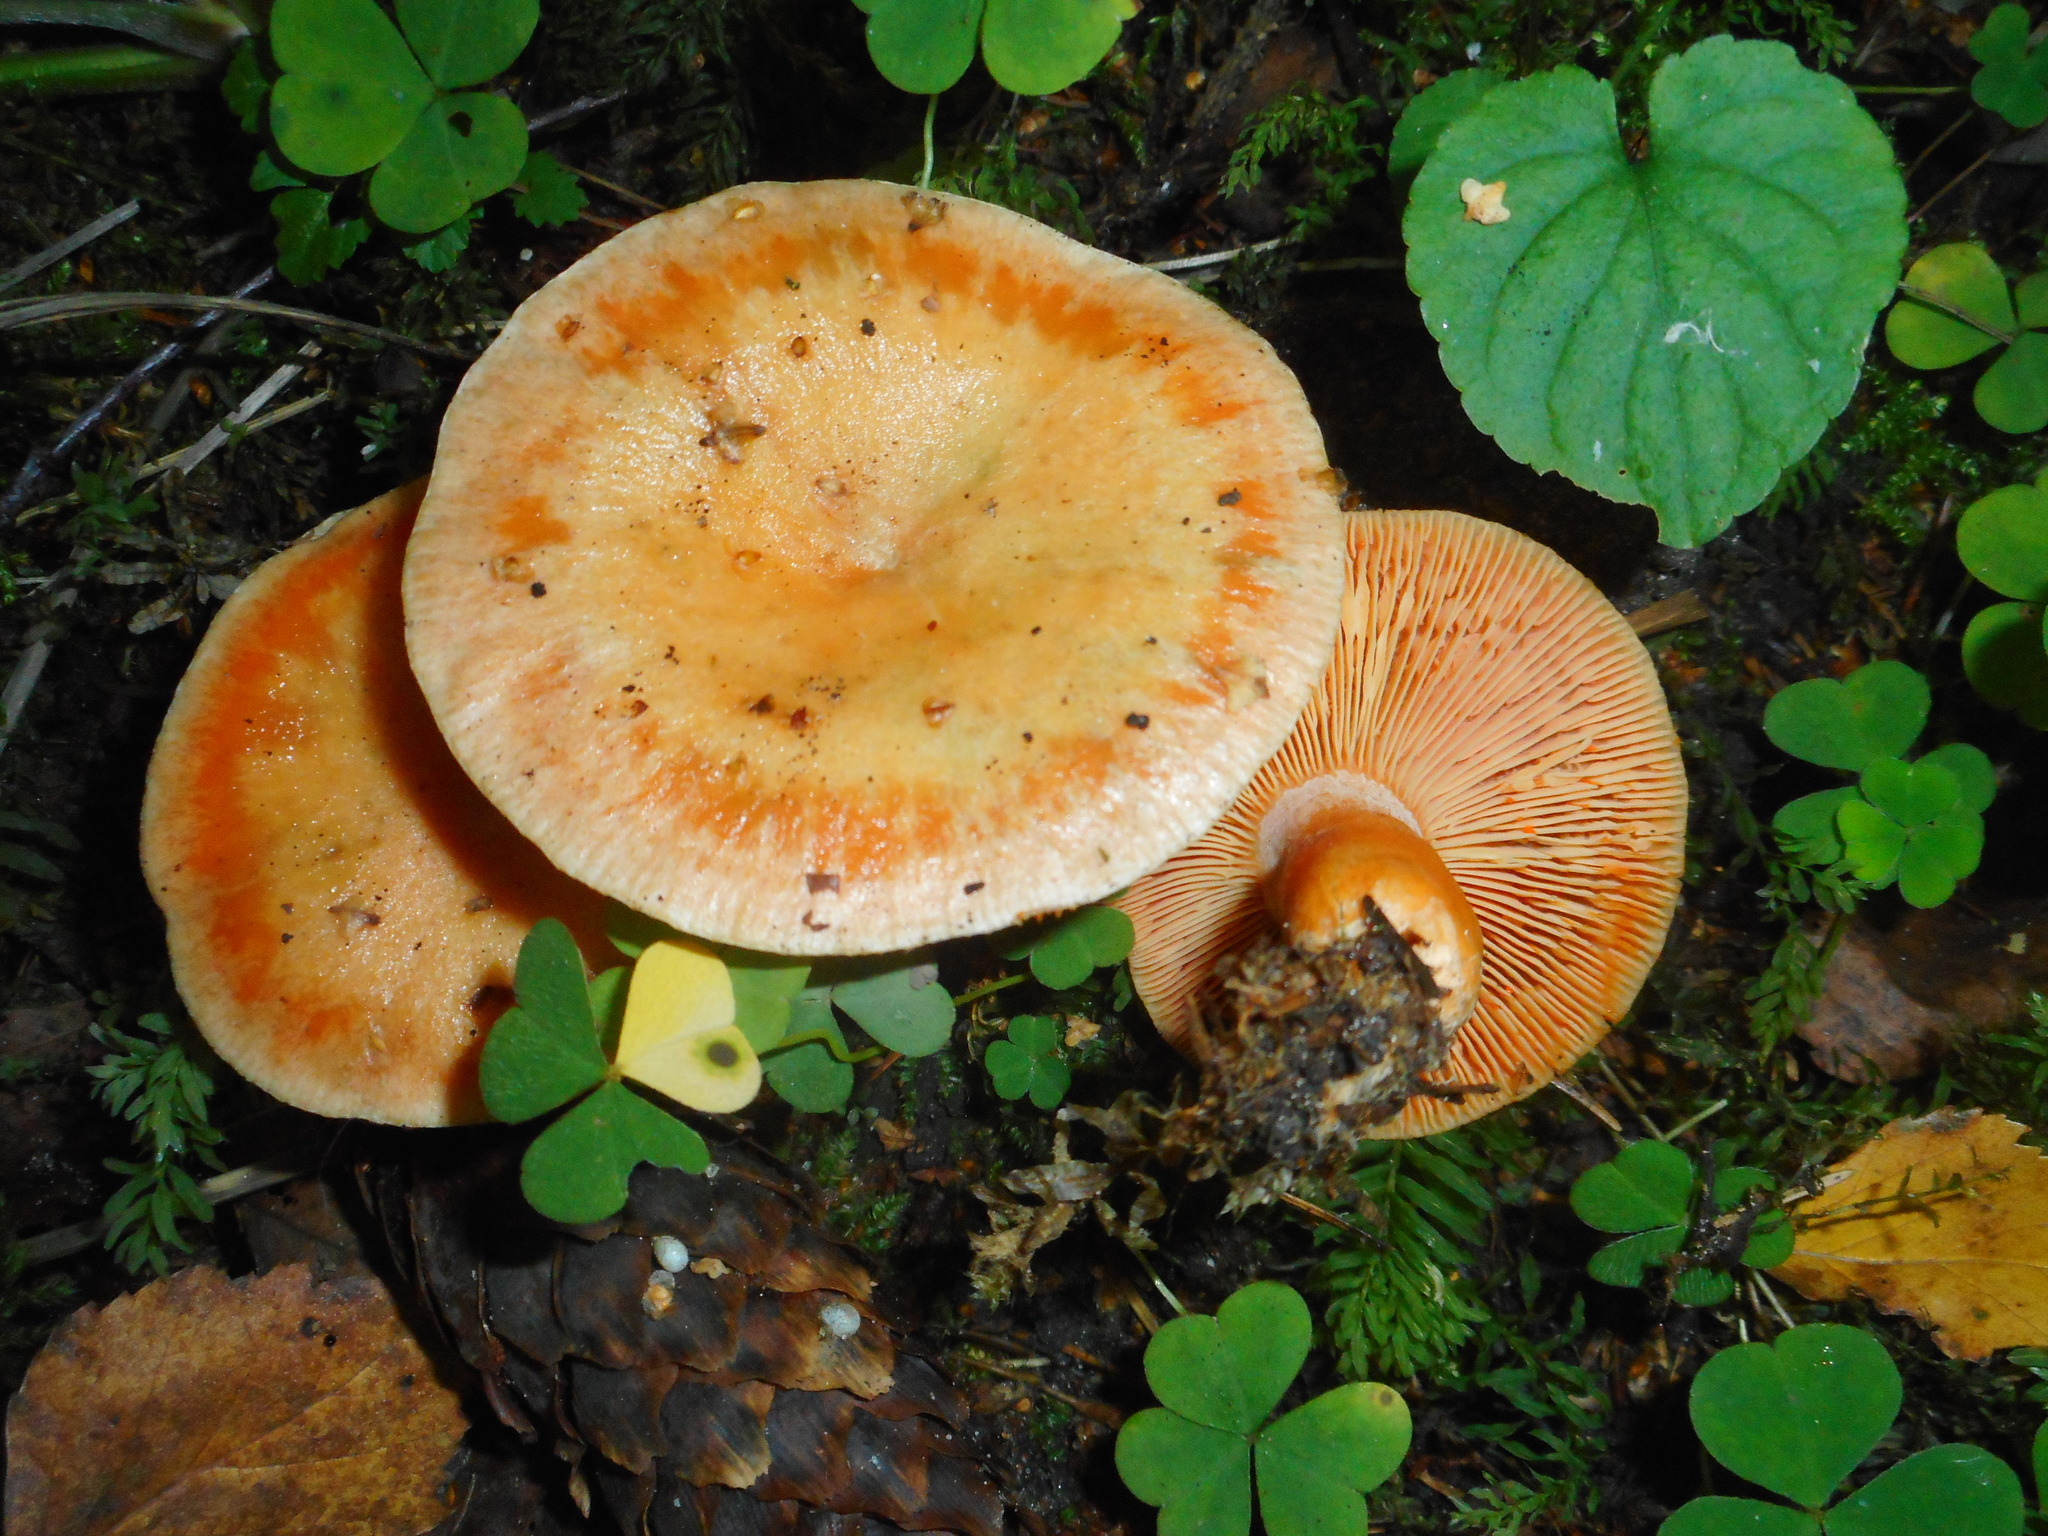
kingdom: Fungi
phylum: Basidiomycota
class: Agaricomycetes
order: Russulales
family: Russulaceae
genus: Lactarius
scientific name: Lactarius deterrimus
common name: False saffron milkcap
